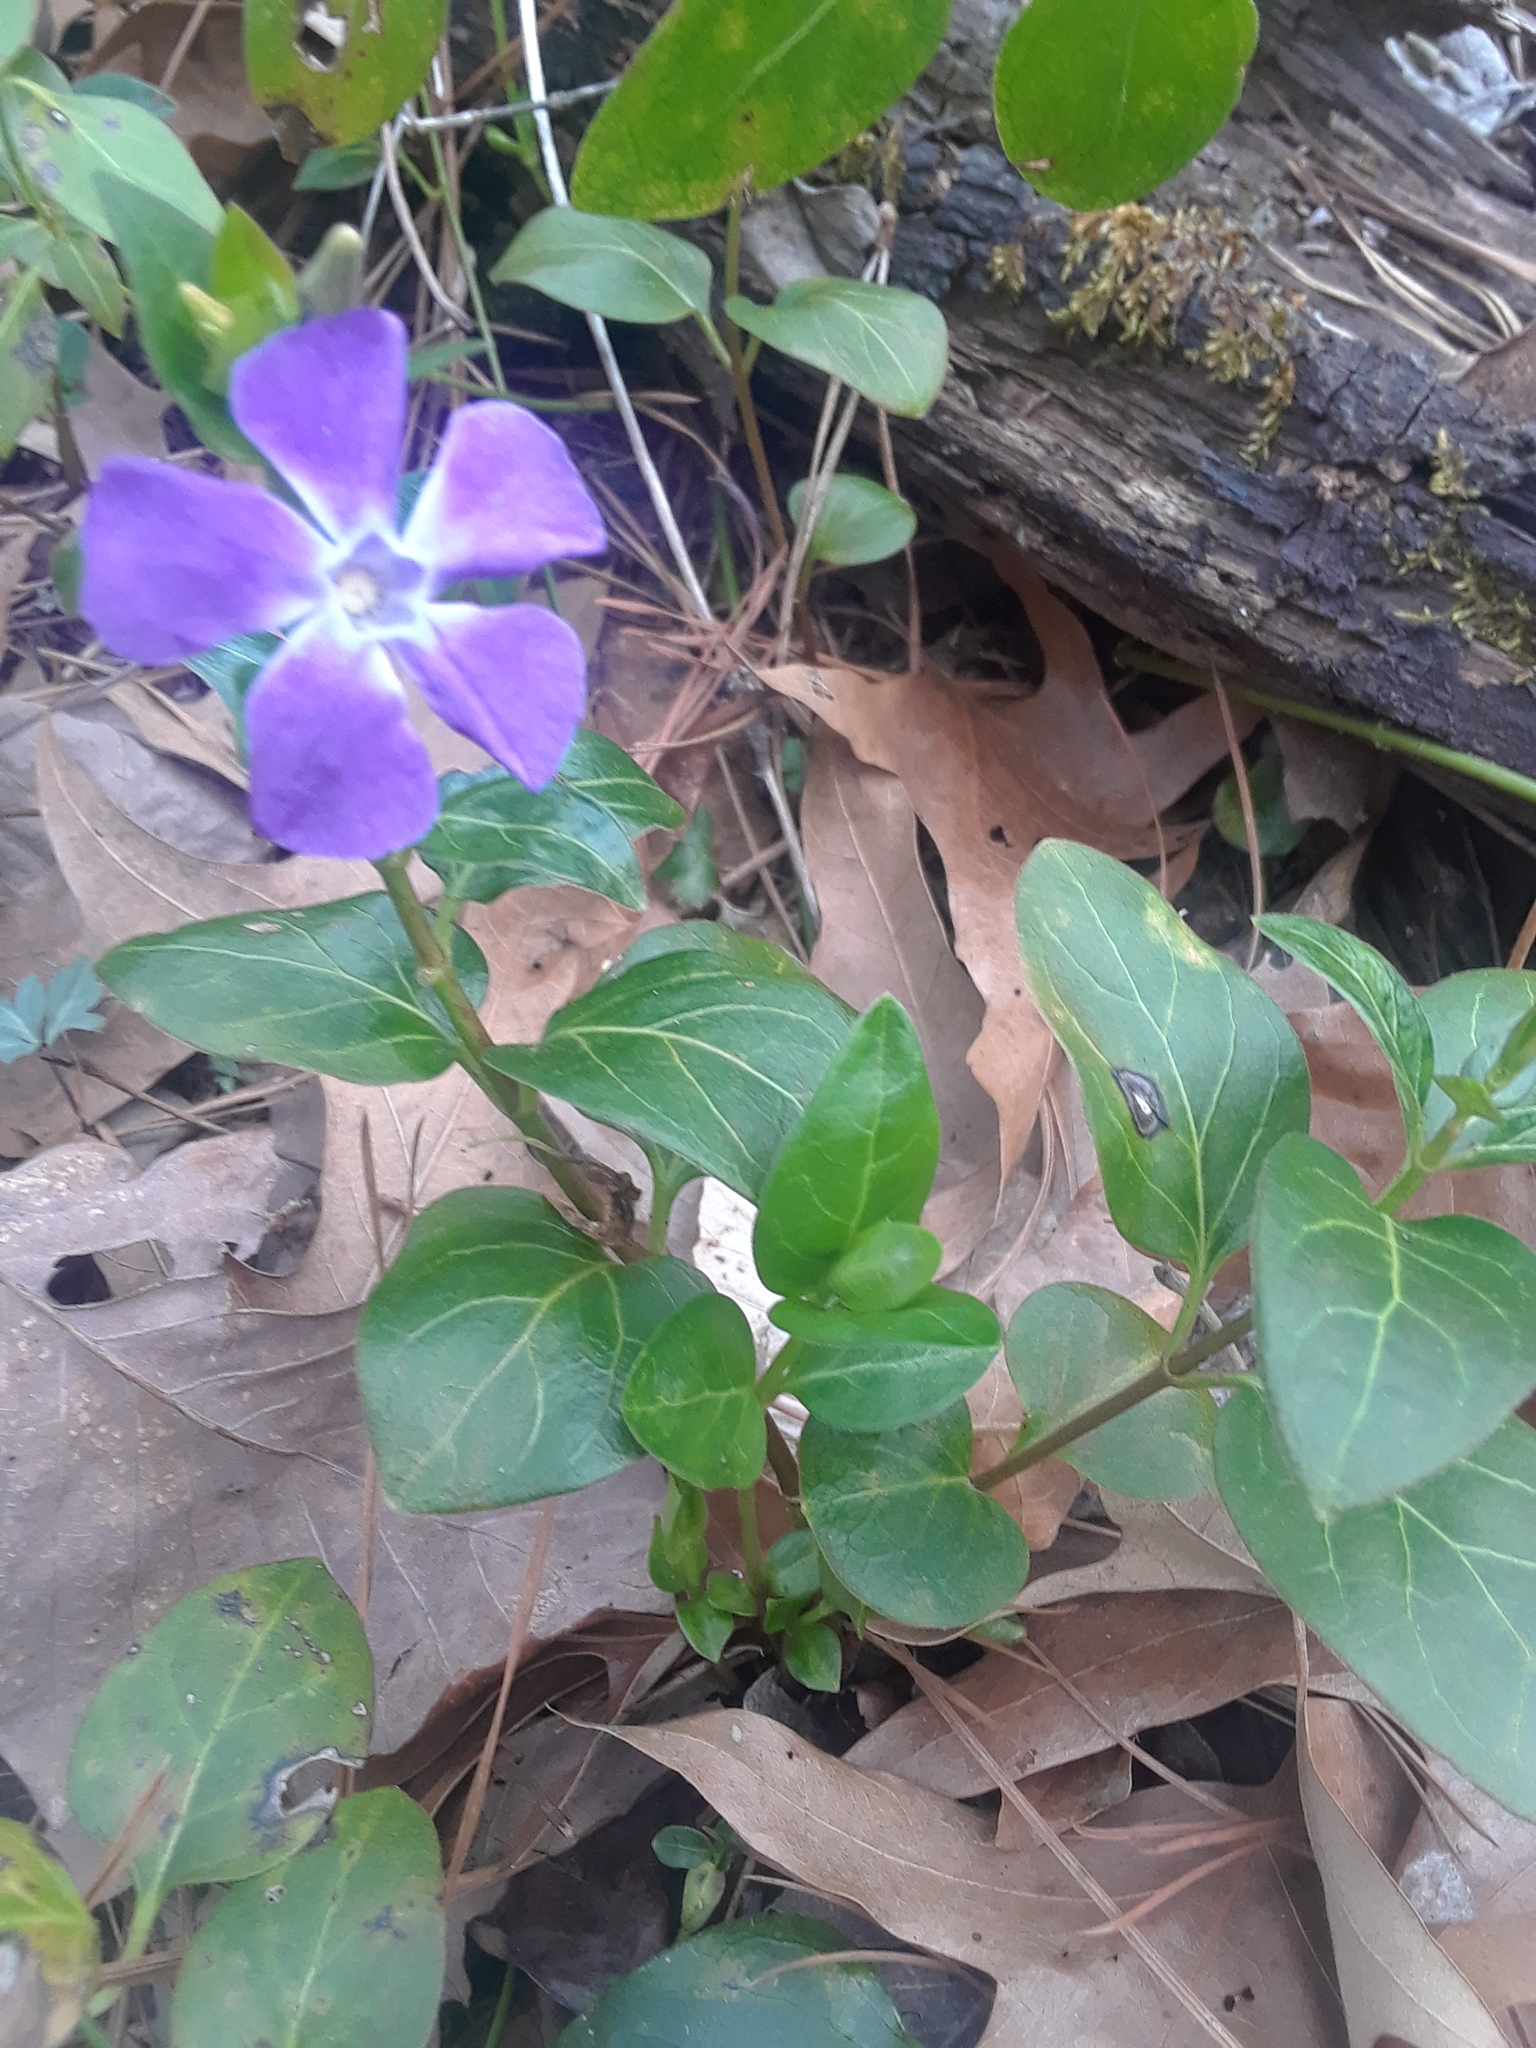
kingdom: Plantae
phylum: Tracheophyta
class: Magnoliopsida
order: Gentianales
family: Apocynaceae
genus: Vinca
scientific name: Vinca major
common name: Greater periwinkle
